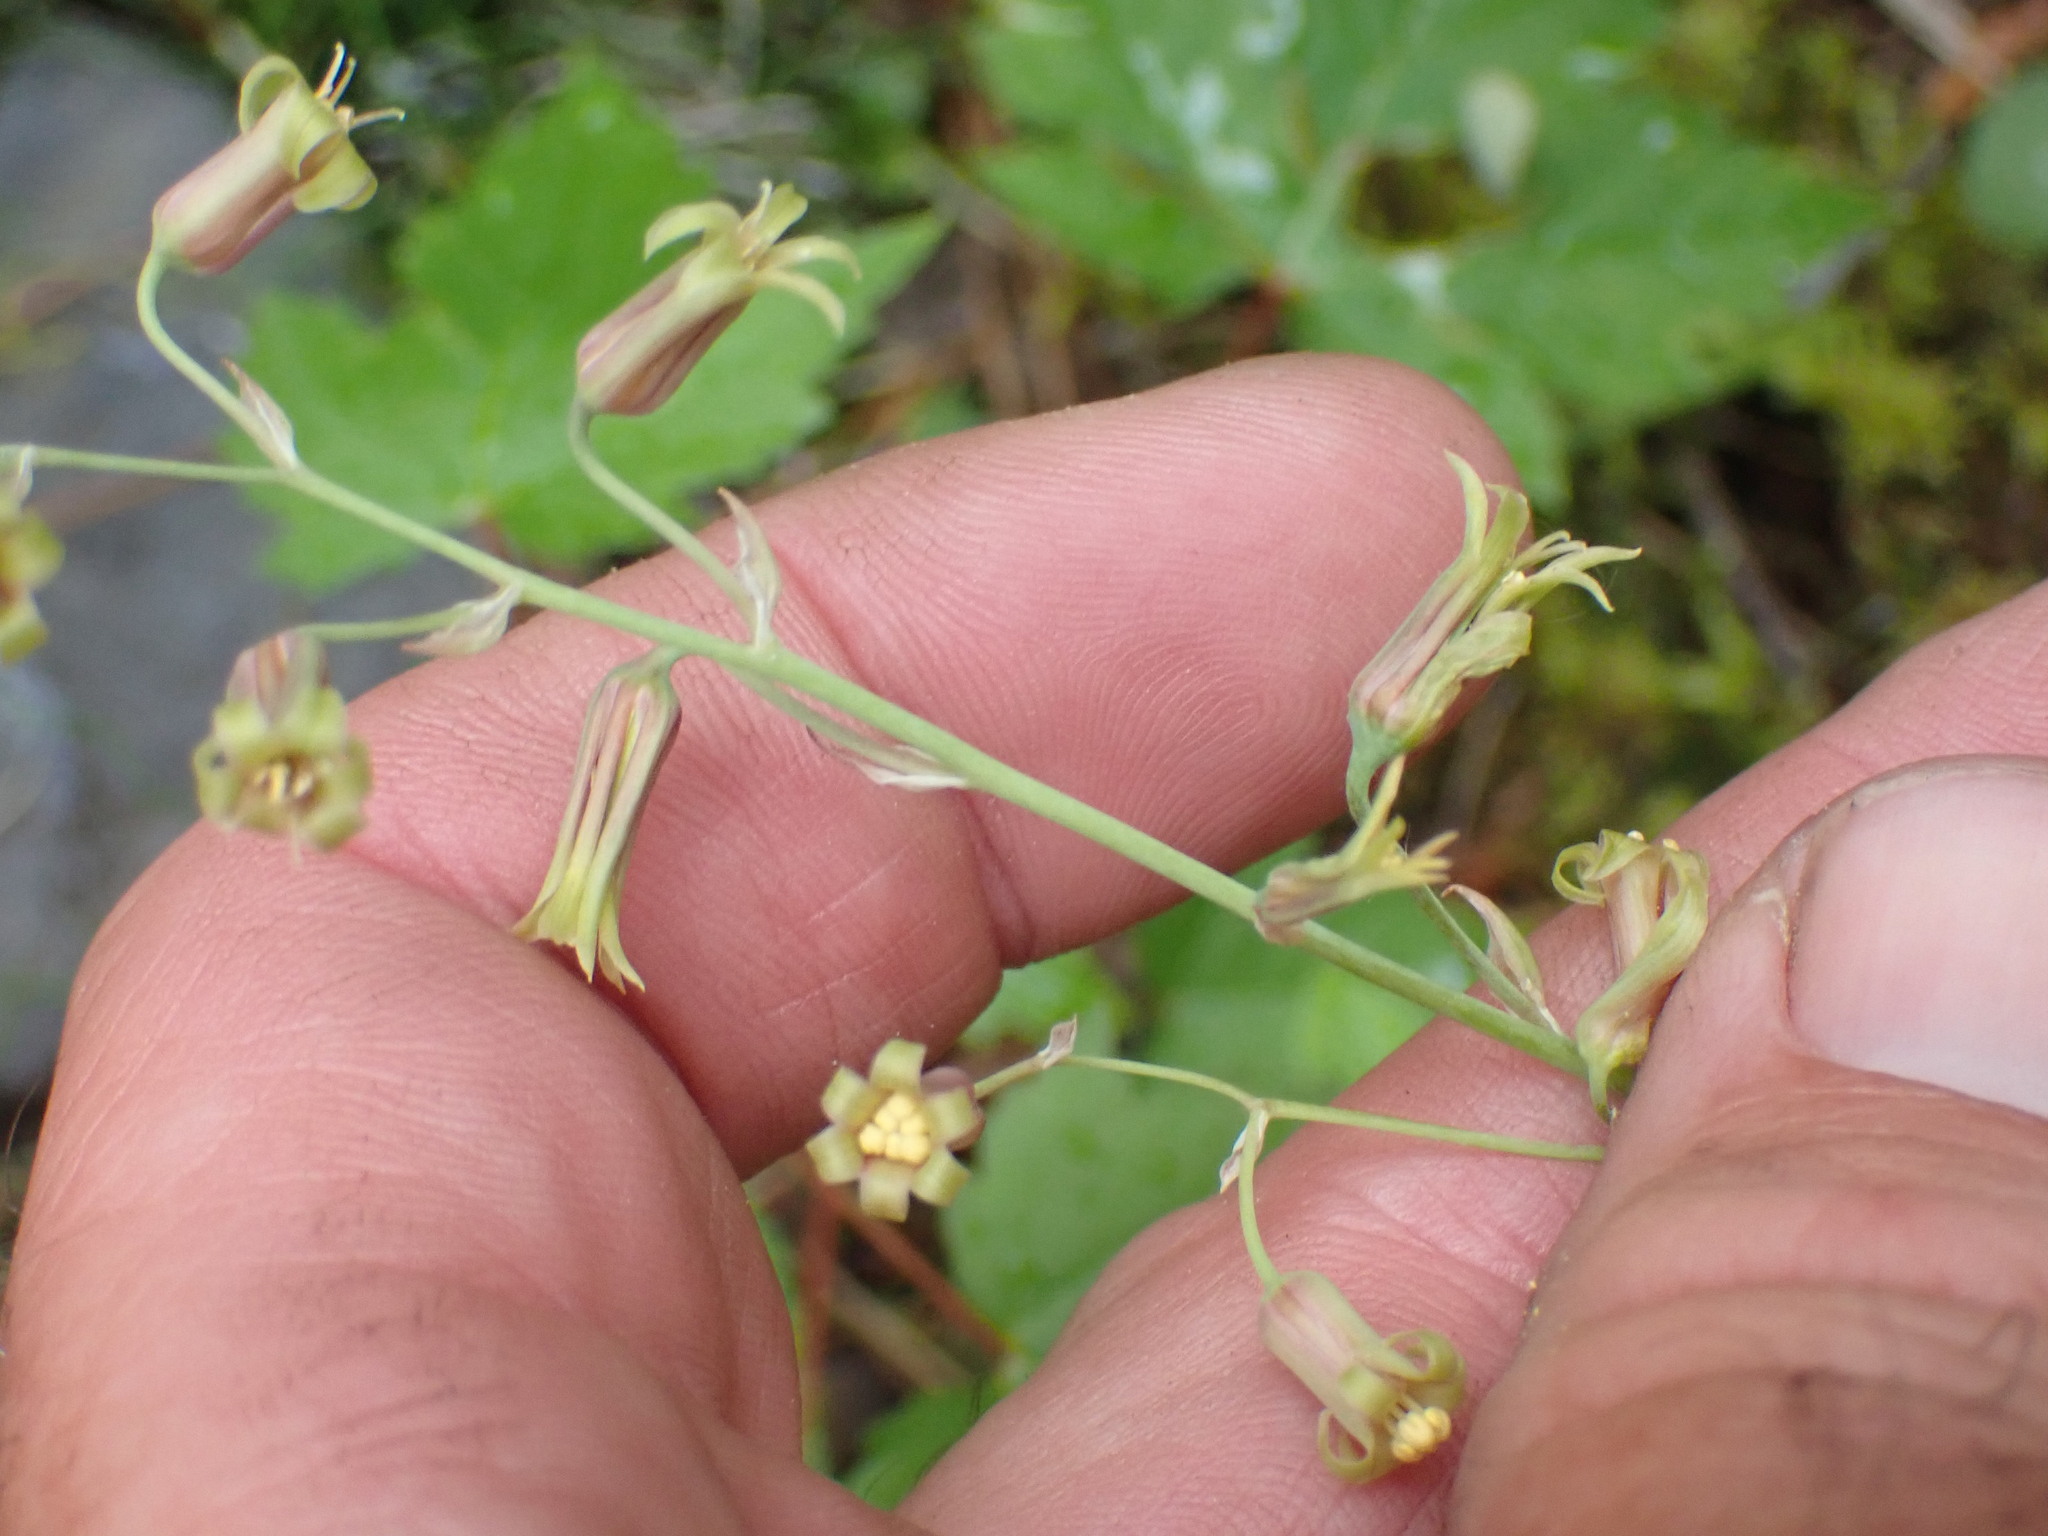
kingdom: Plantae
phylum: Tracheophyta
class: Liliopsida
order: Liliales
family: Melanthiaceae
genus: Anticlea
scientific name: Anticlea occidentalis
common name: Bronze-bells
